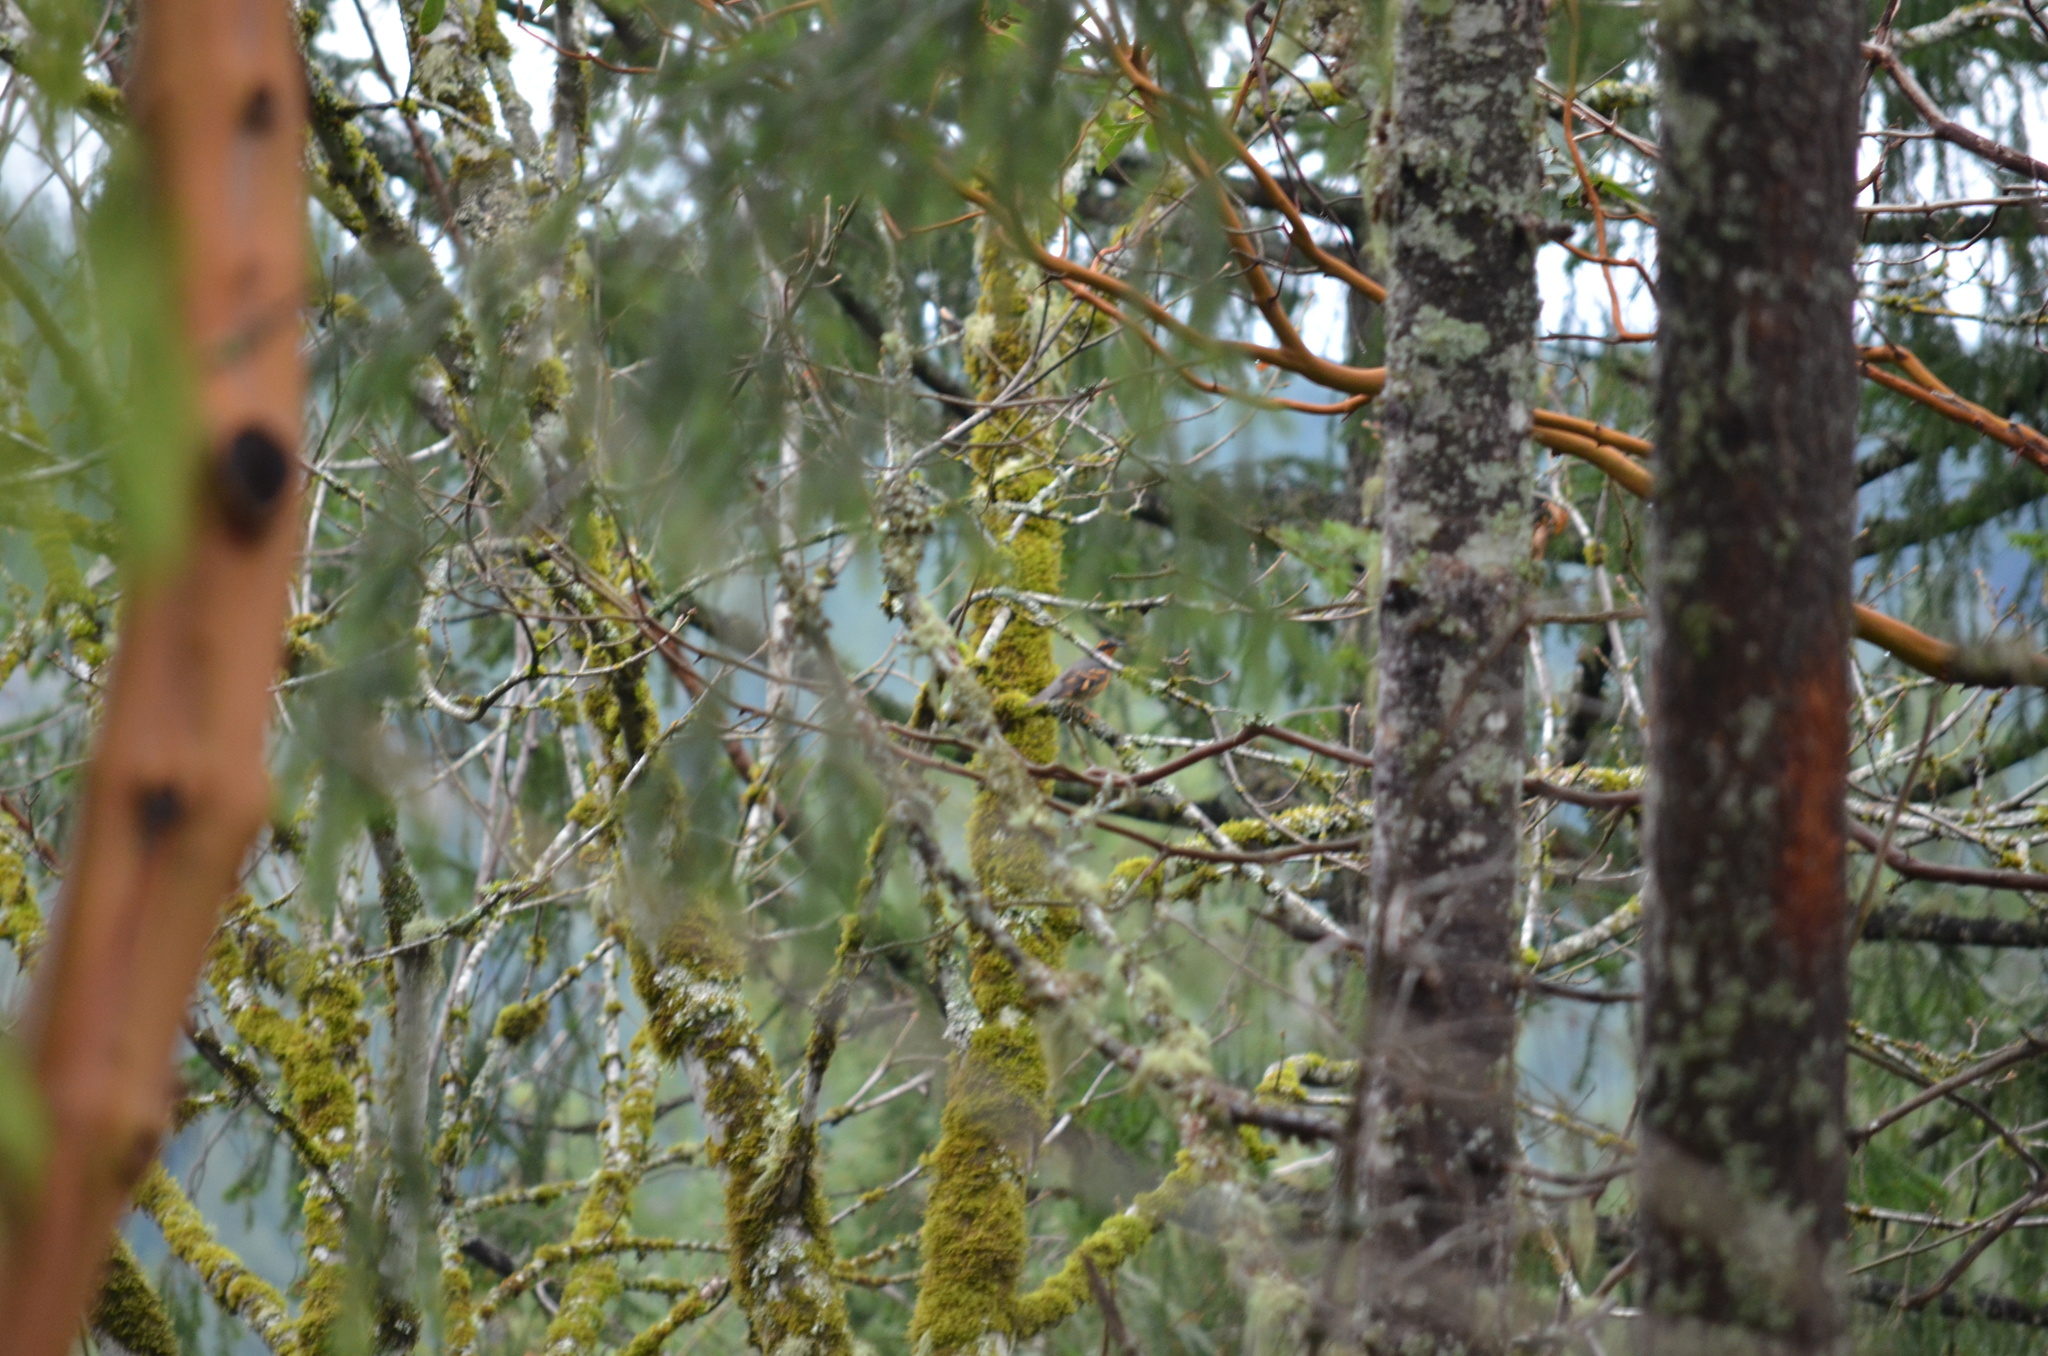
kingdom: Animalia
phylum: Chordata
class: Aves
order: Passeriformes
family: Turdidae
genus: Ixoreus
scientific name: Ixoreus naevius
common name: Varied thrush
